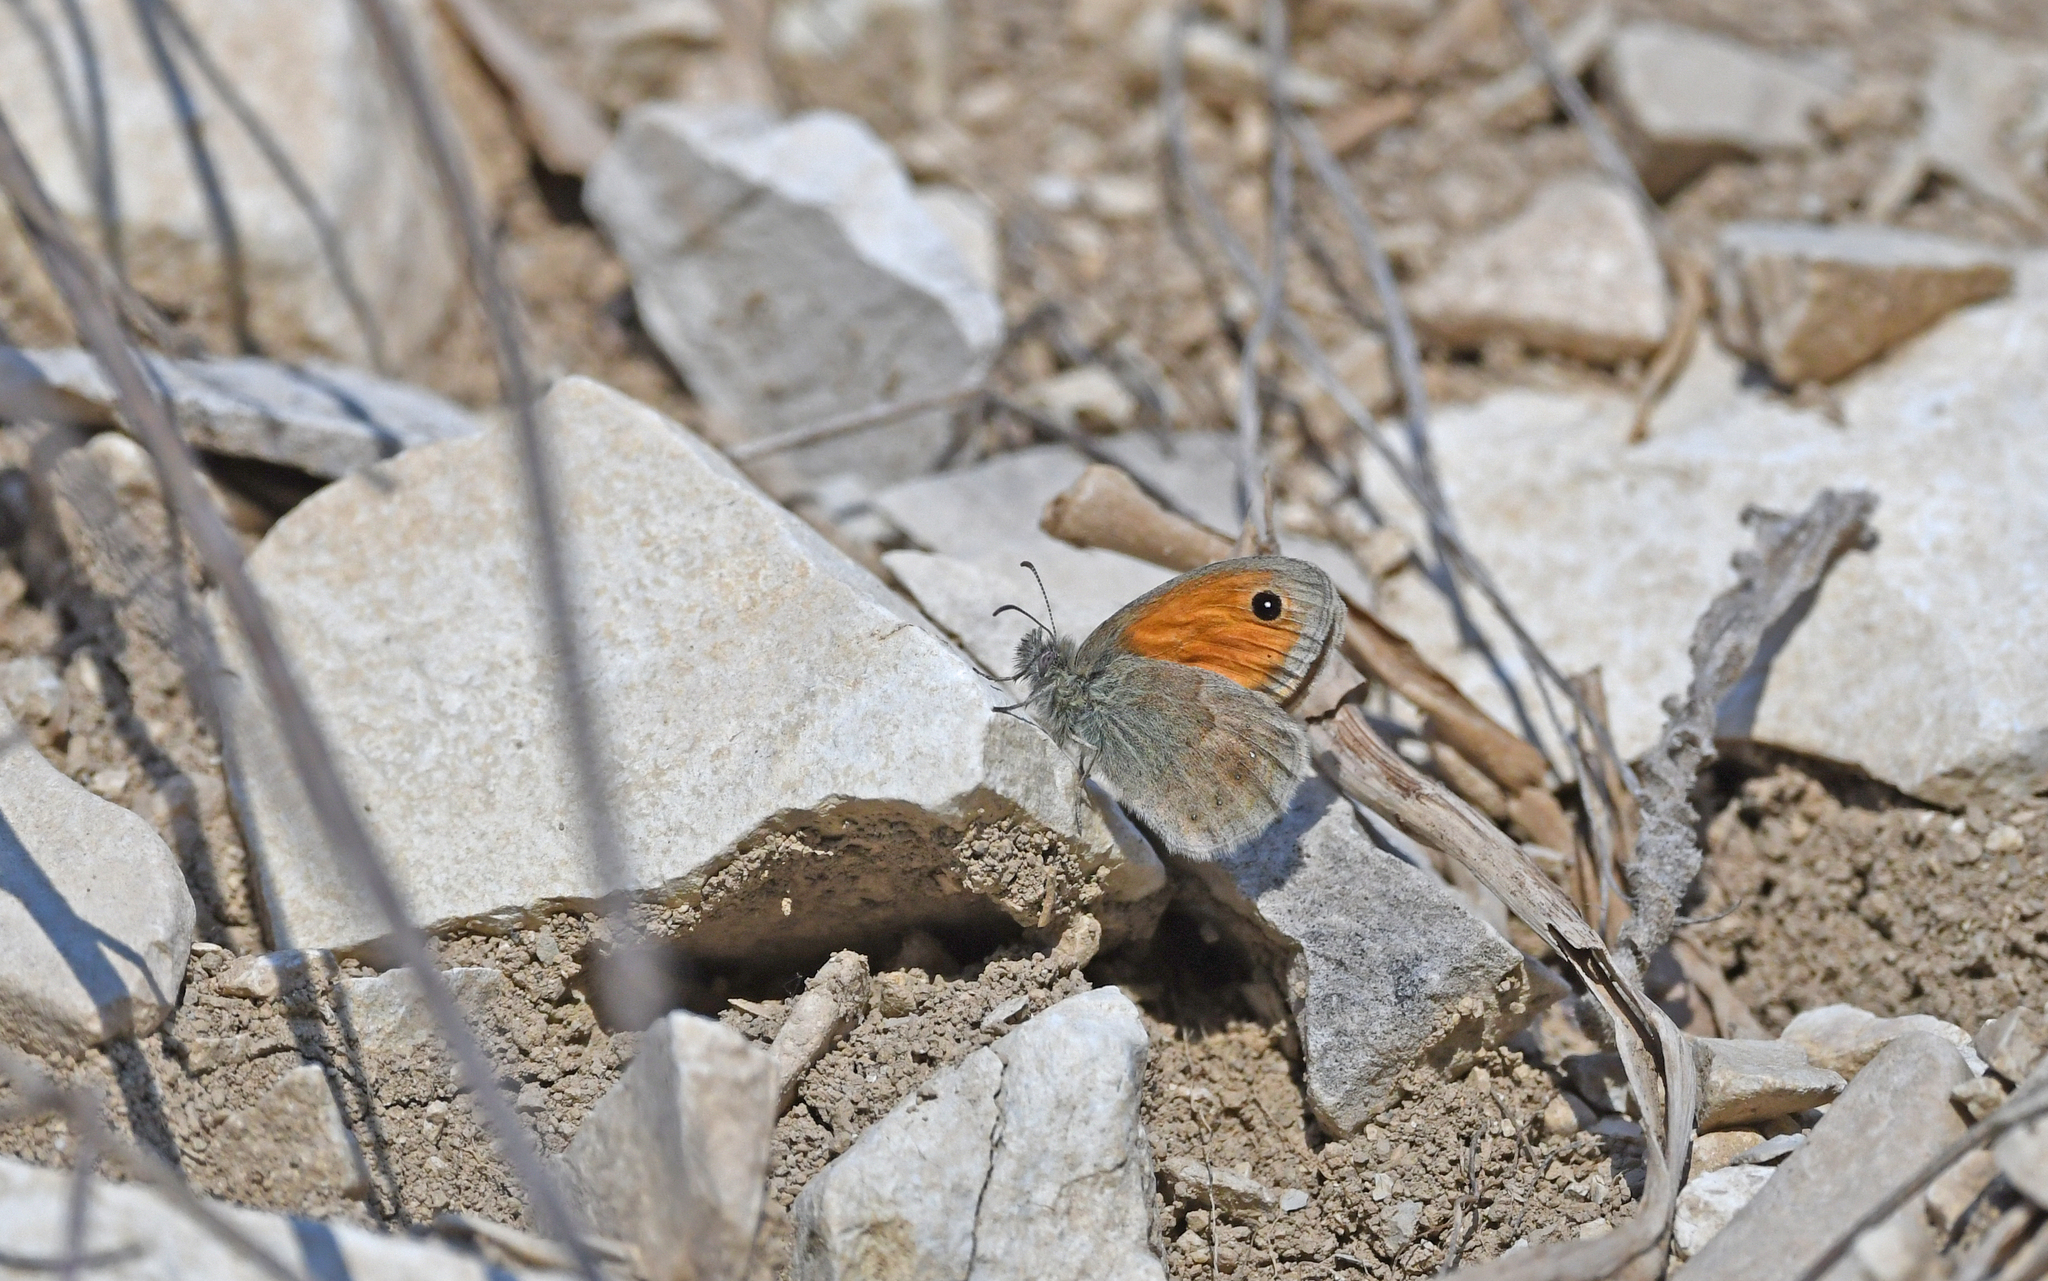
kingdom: Animalia
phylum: Arthropoda
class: Insecta
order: Lepidoptera
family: Nymphalidae
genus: Coenonympha
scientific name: Coenonympha pamphilus
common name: Small heath
